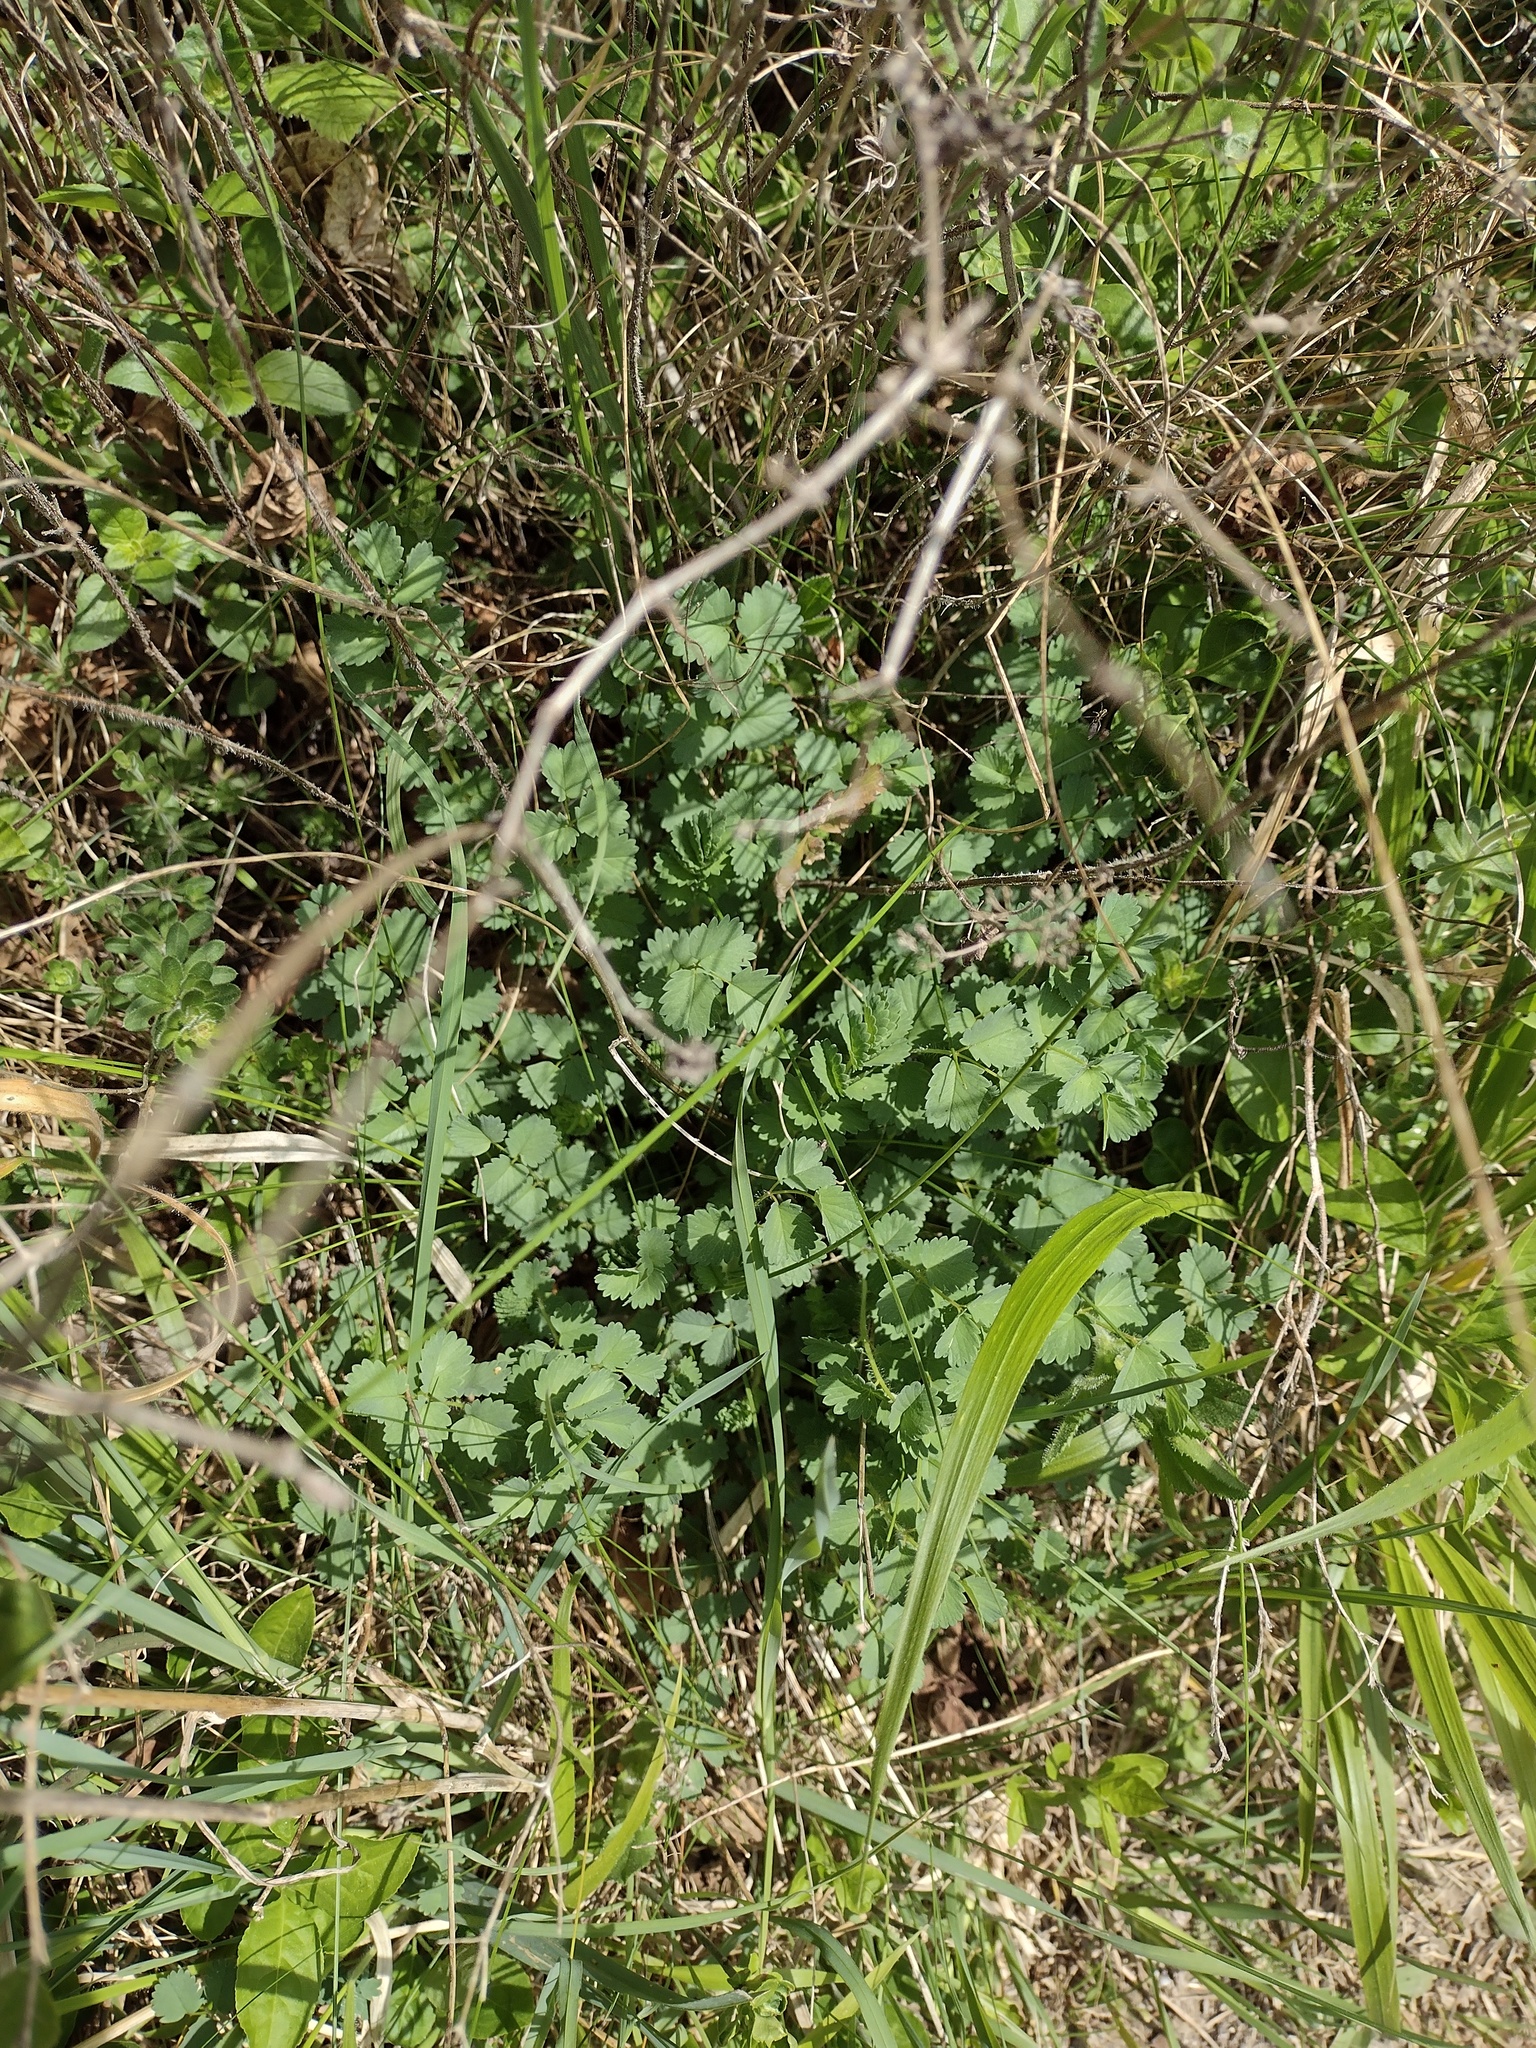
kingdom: Plantae
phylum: Tracheophyta
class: Magnoliopsida
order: Rosales
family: Rosaceae
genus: Poterium
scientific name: Poterium sanguisorba
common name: Salad burnet
